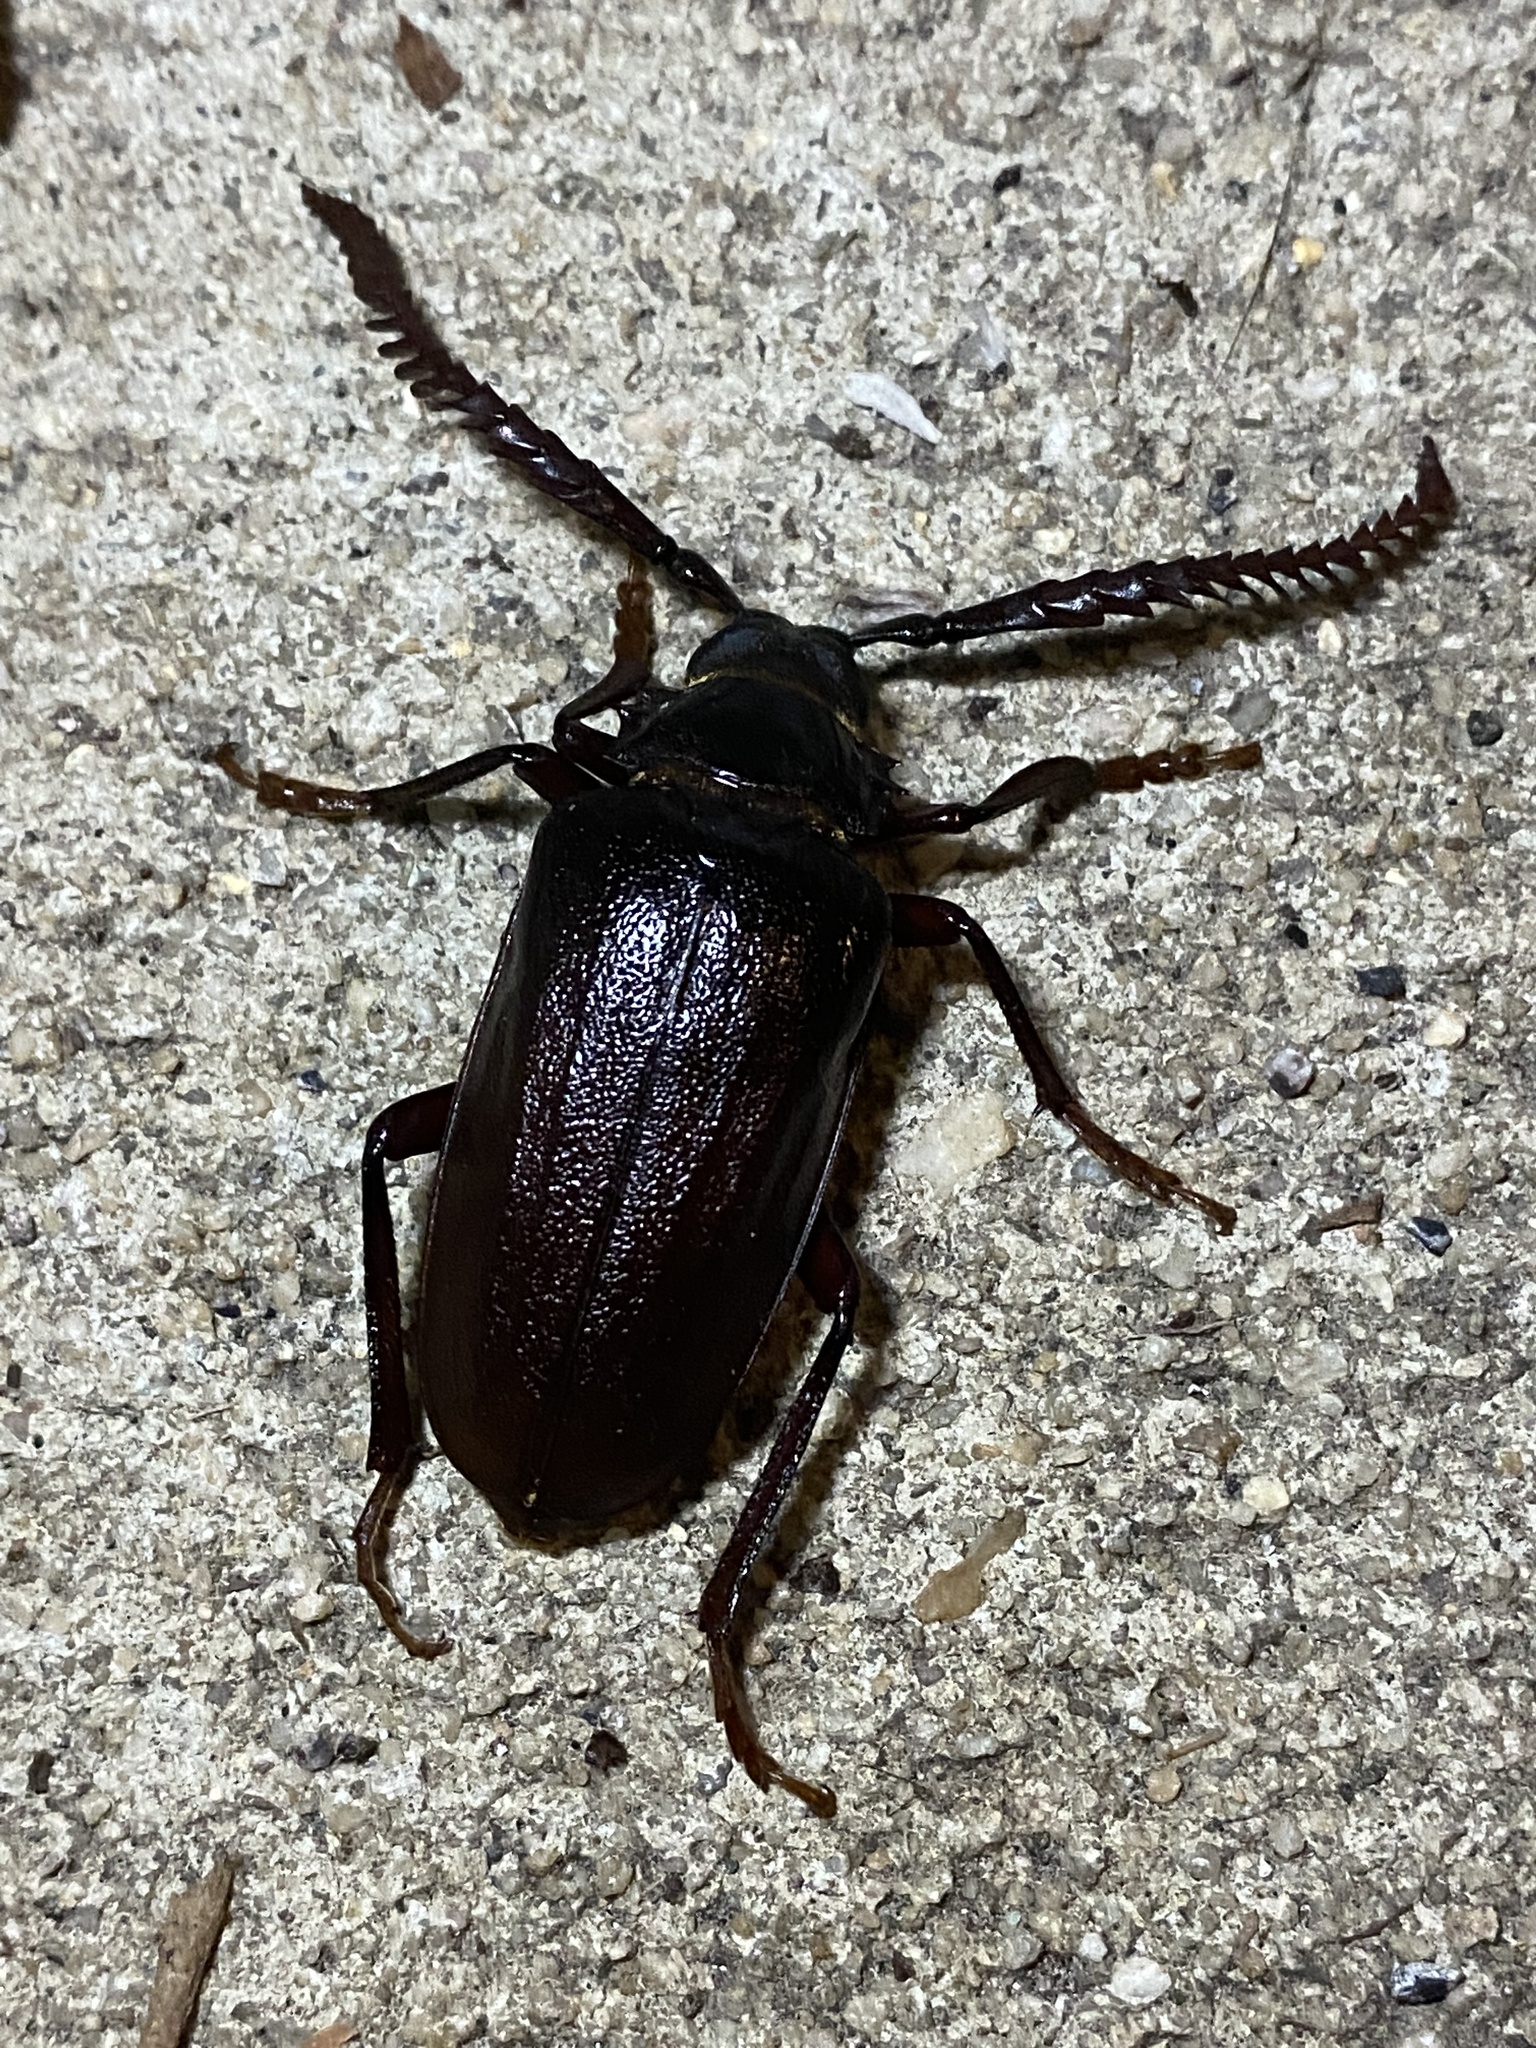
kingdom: Animalia
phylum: Arthropoda
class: Insecta
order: Coleoptera
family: Cerambycidae
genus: Prionus
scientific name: Prionus imbricornis
